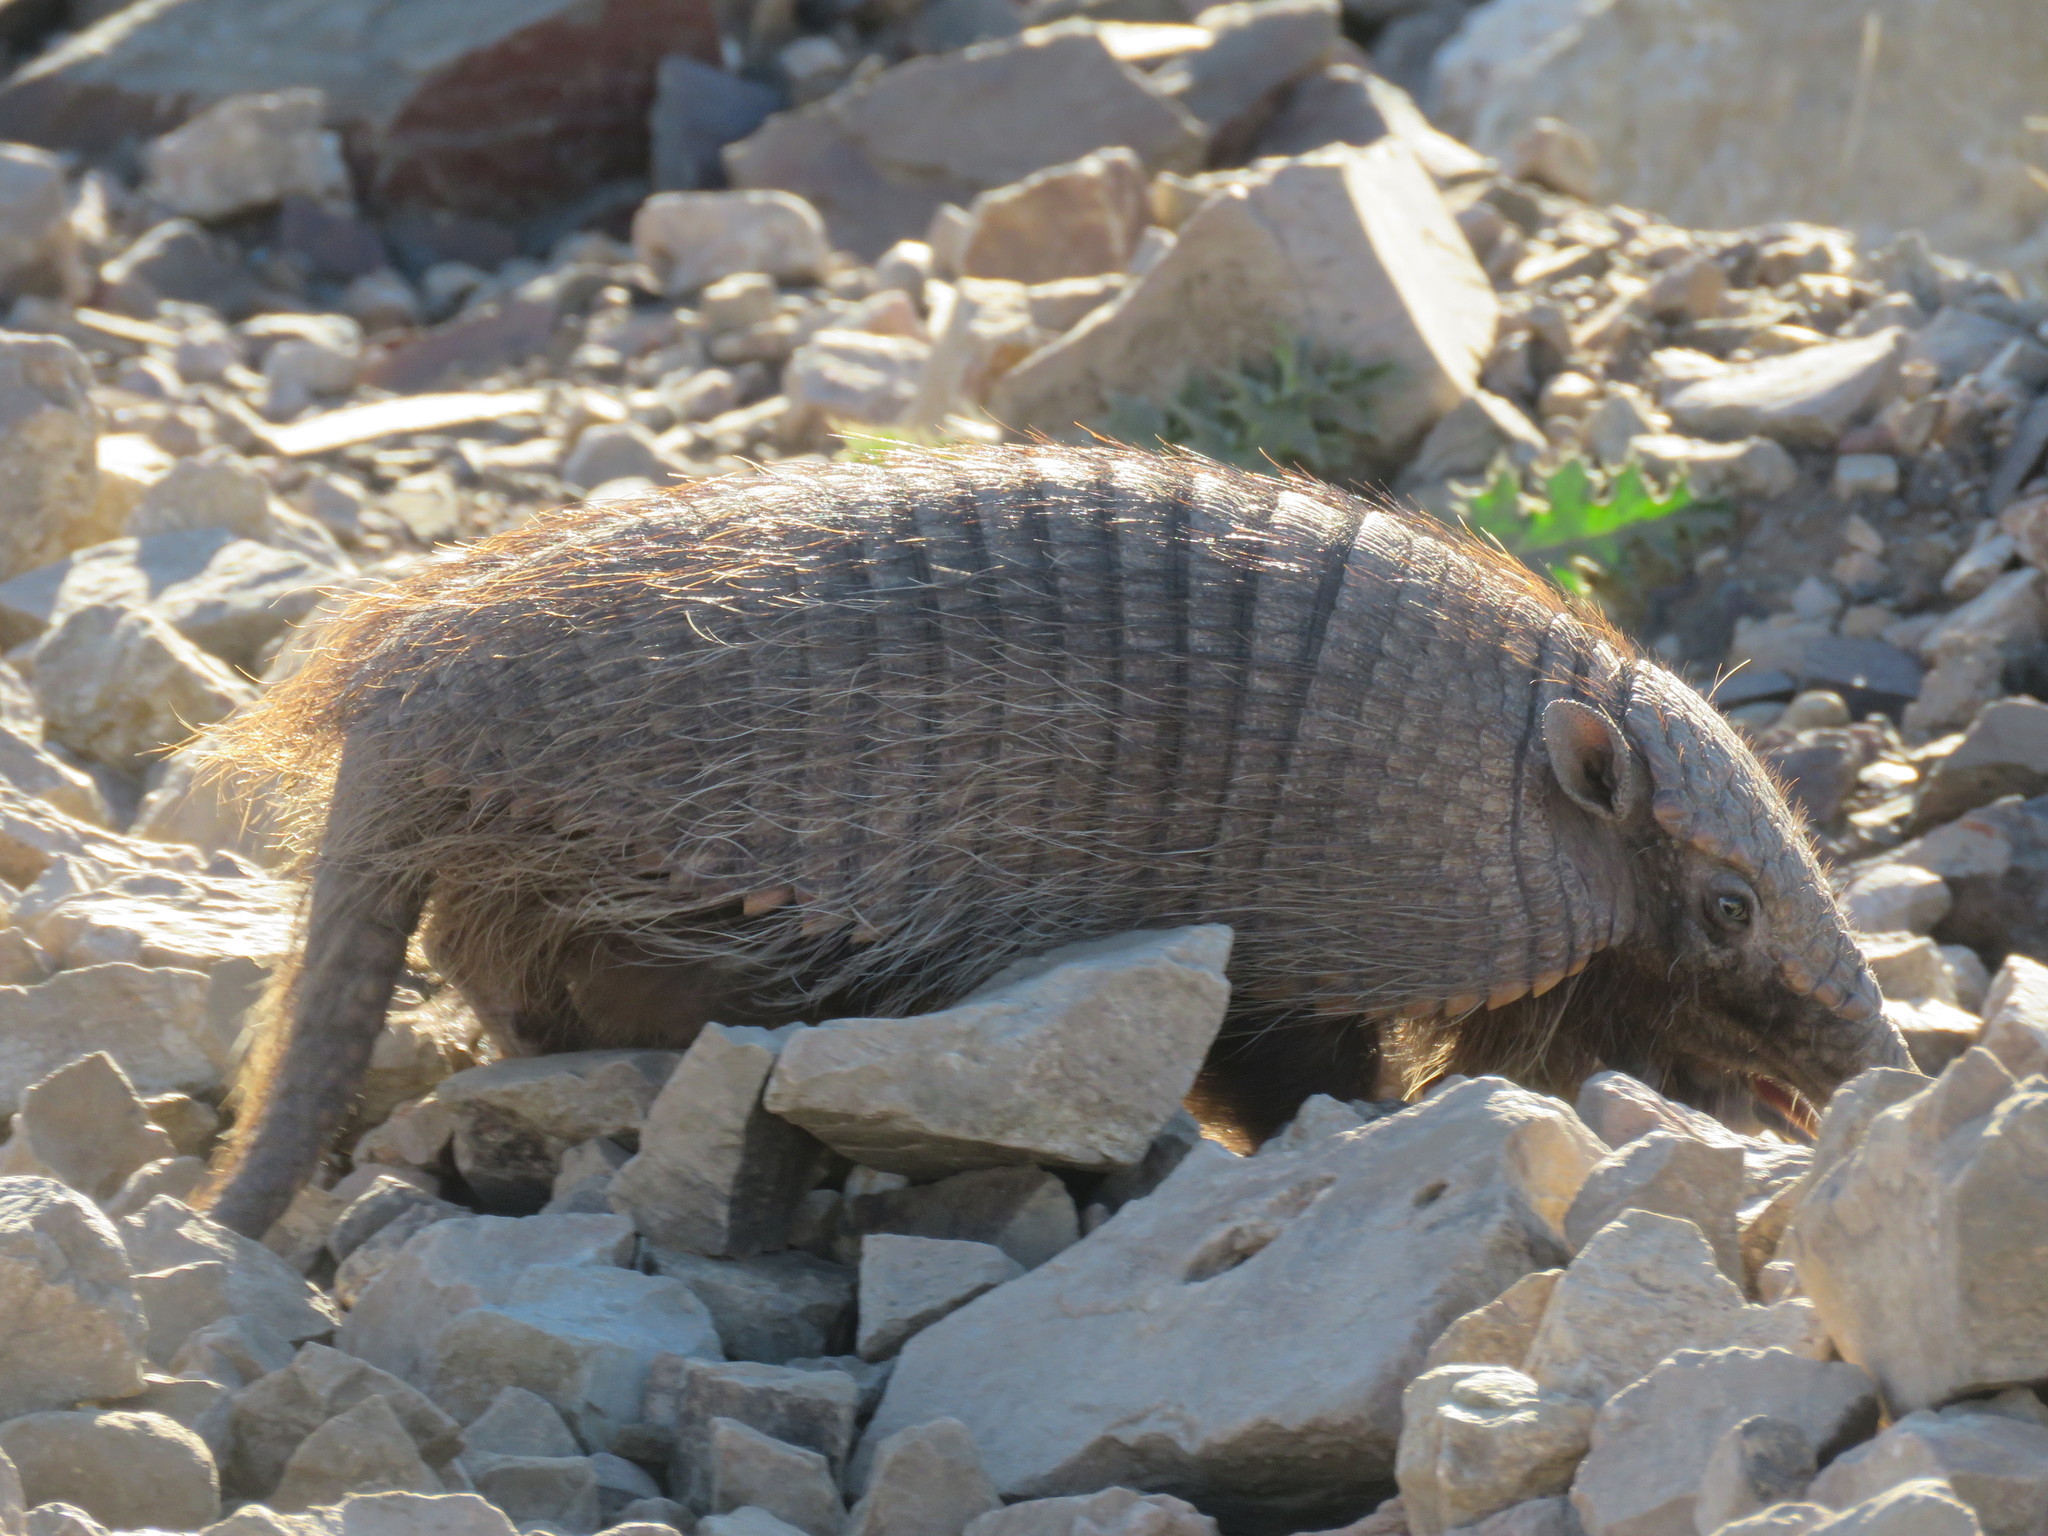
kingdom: Animalia
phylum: Chordata
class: Mammalia
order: Cingulata
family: Dasypodidae
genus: Chaetophractus
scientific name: Chaetophractus villosus
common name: Big hairy armadillo
